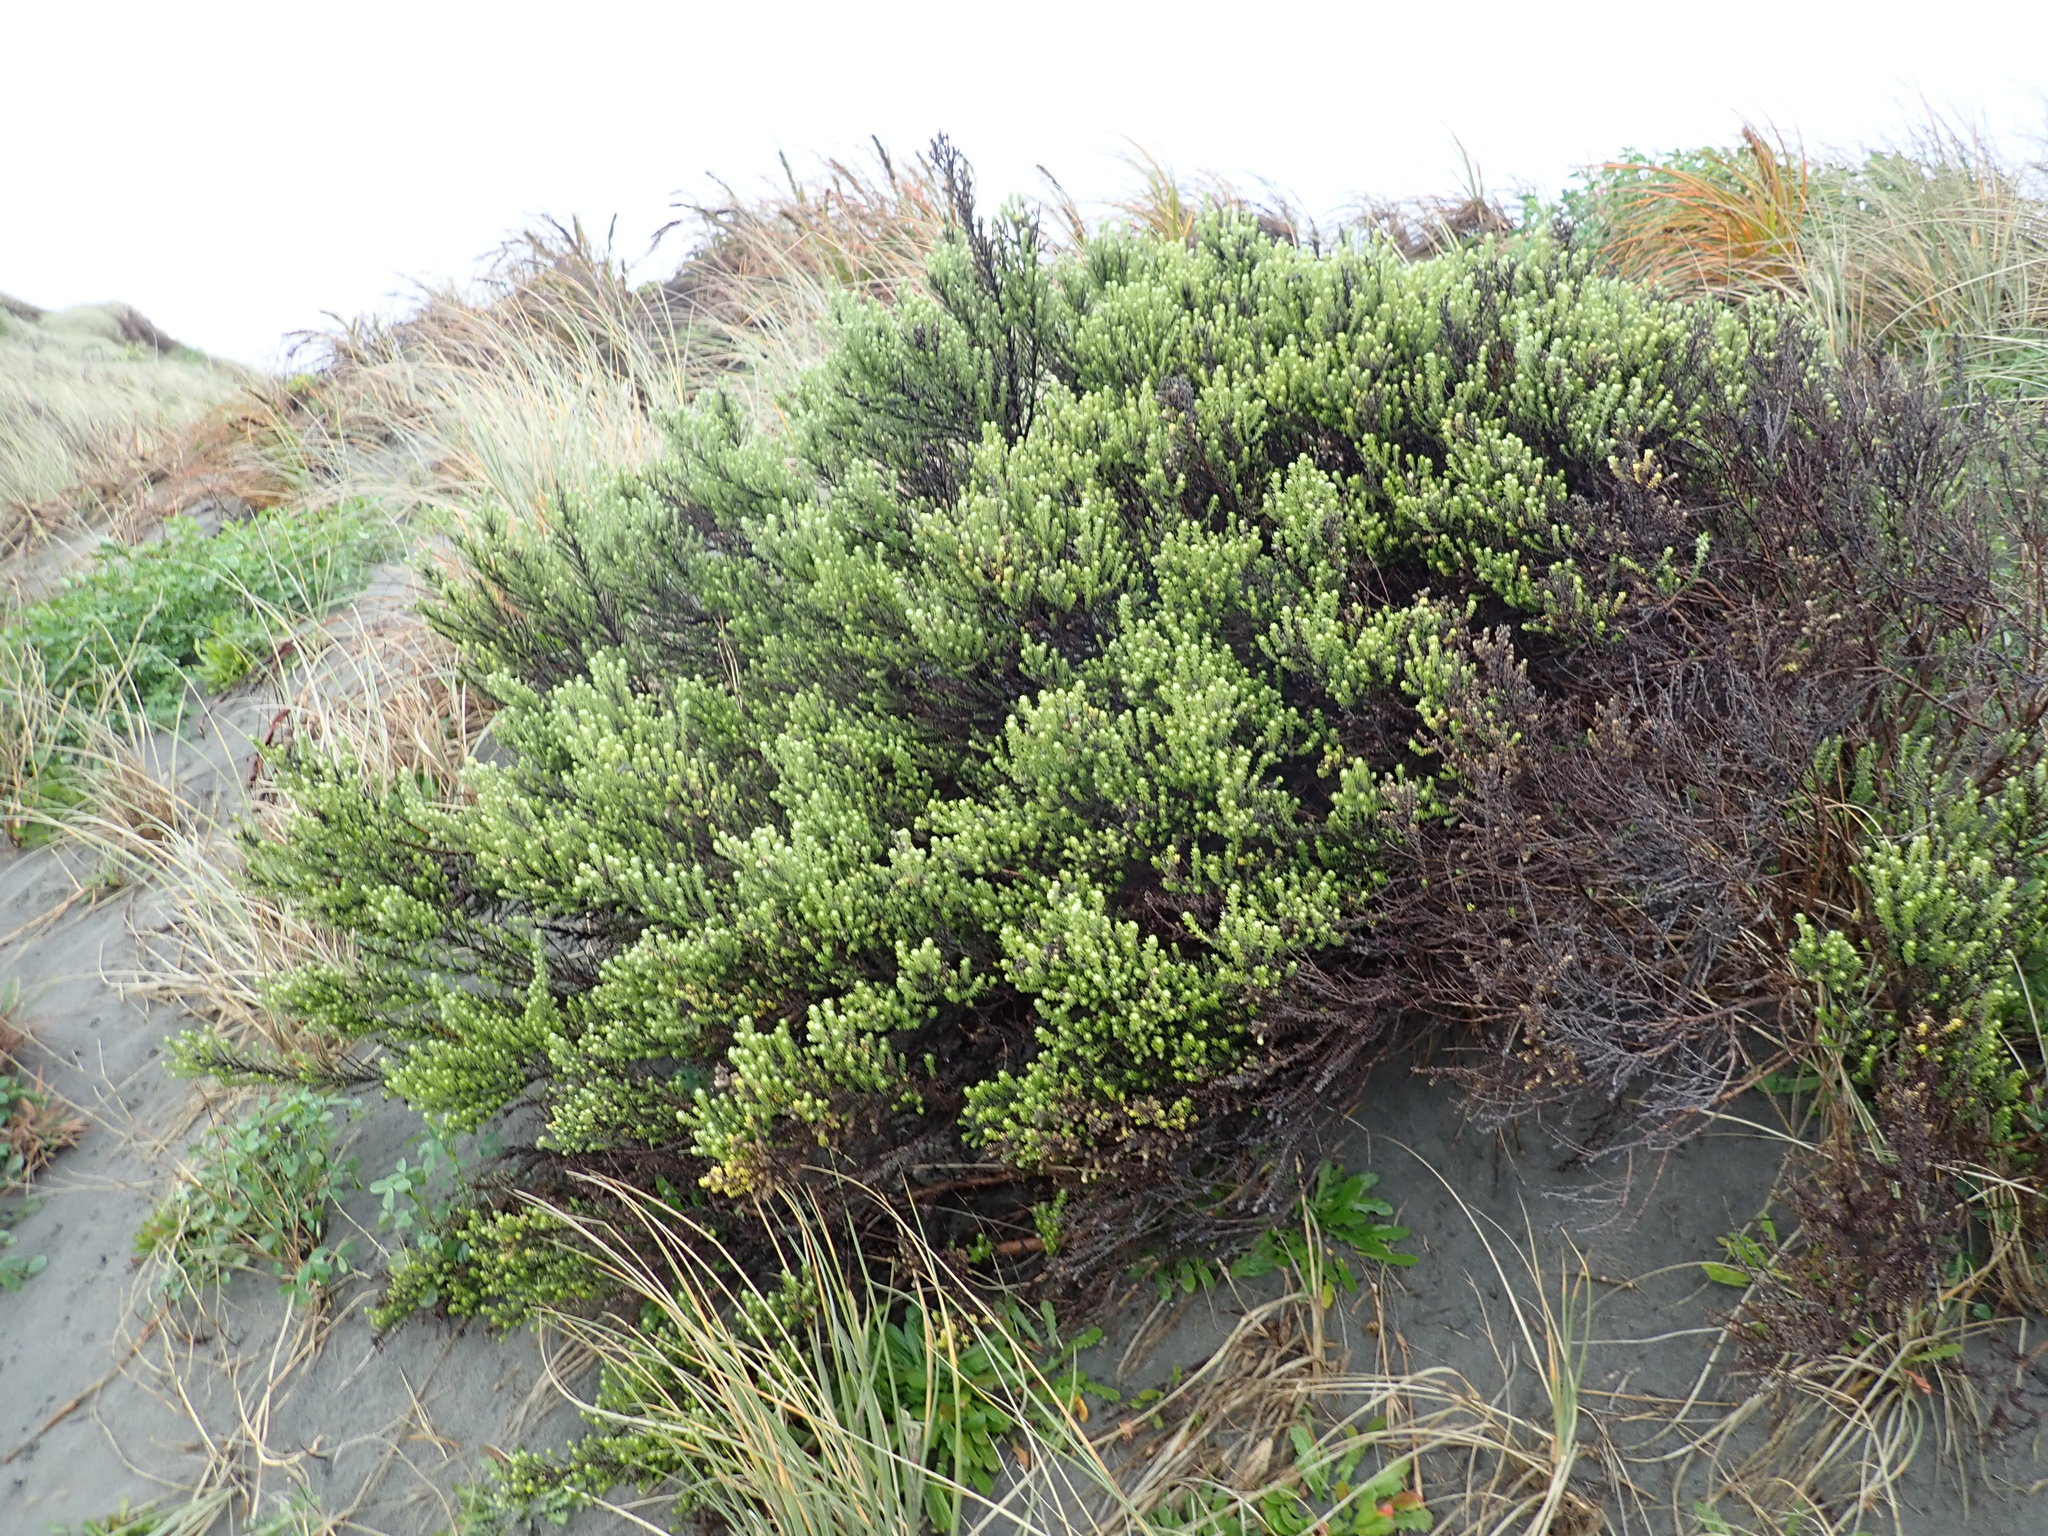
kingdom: Plantae
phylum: Tracheophyta
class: Magnoliopsida
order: Asterales
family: Asteraceae
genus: Ozothamnus
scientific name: Ozothamnus leptophyllus
